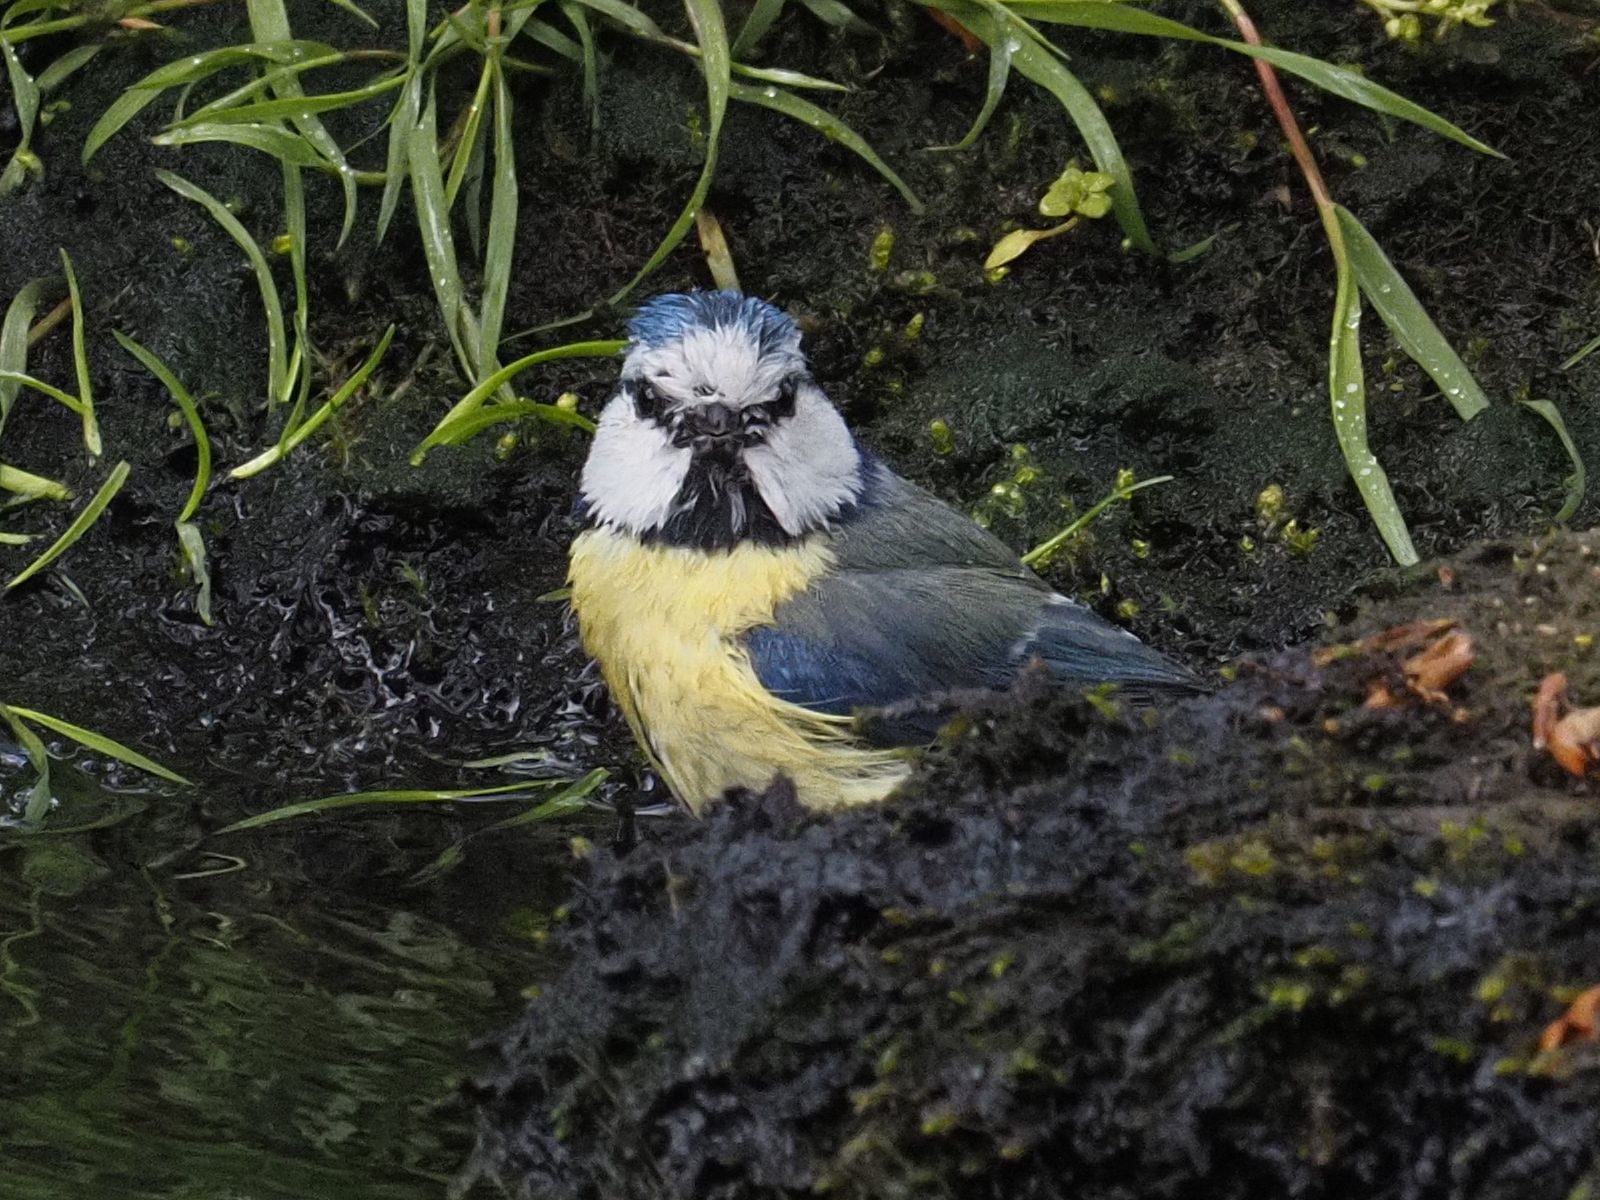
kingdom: Animalia
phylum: Chordata
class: Aves
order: Passeriformes
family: Paridae
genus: Cyanistes
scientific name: Cyanistes caeruleus
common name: Eurasian blue tit
